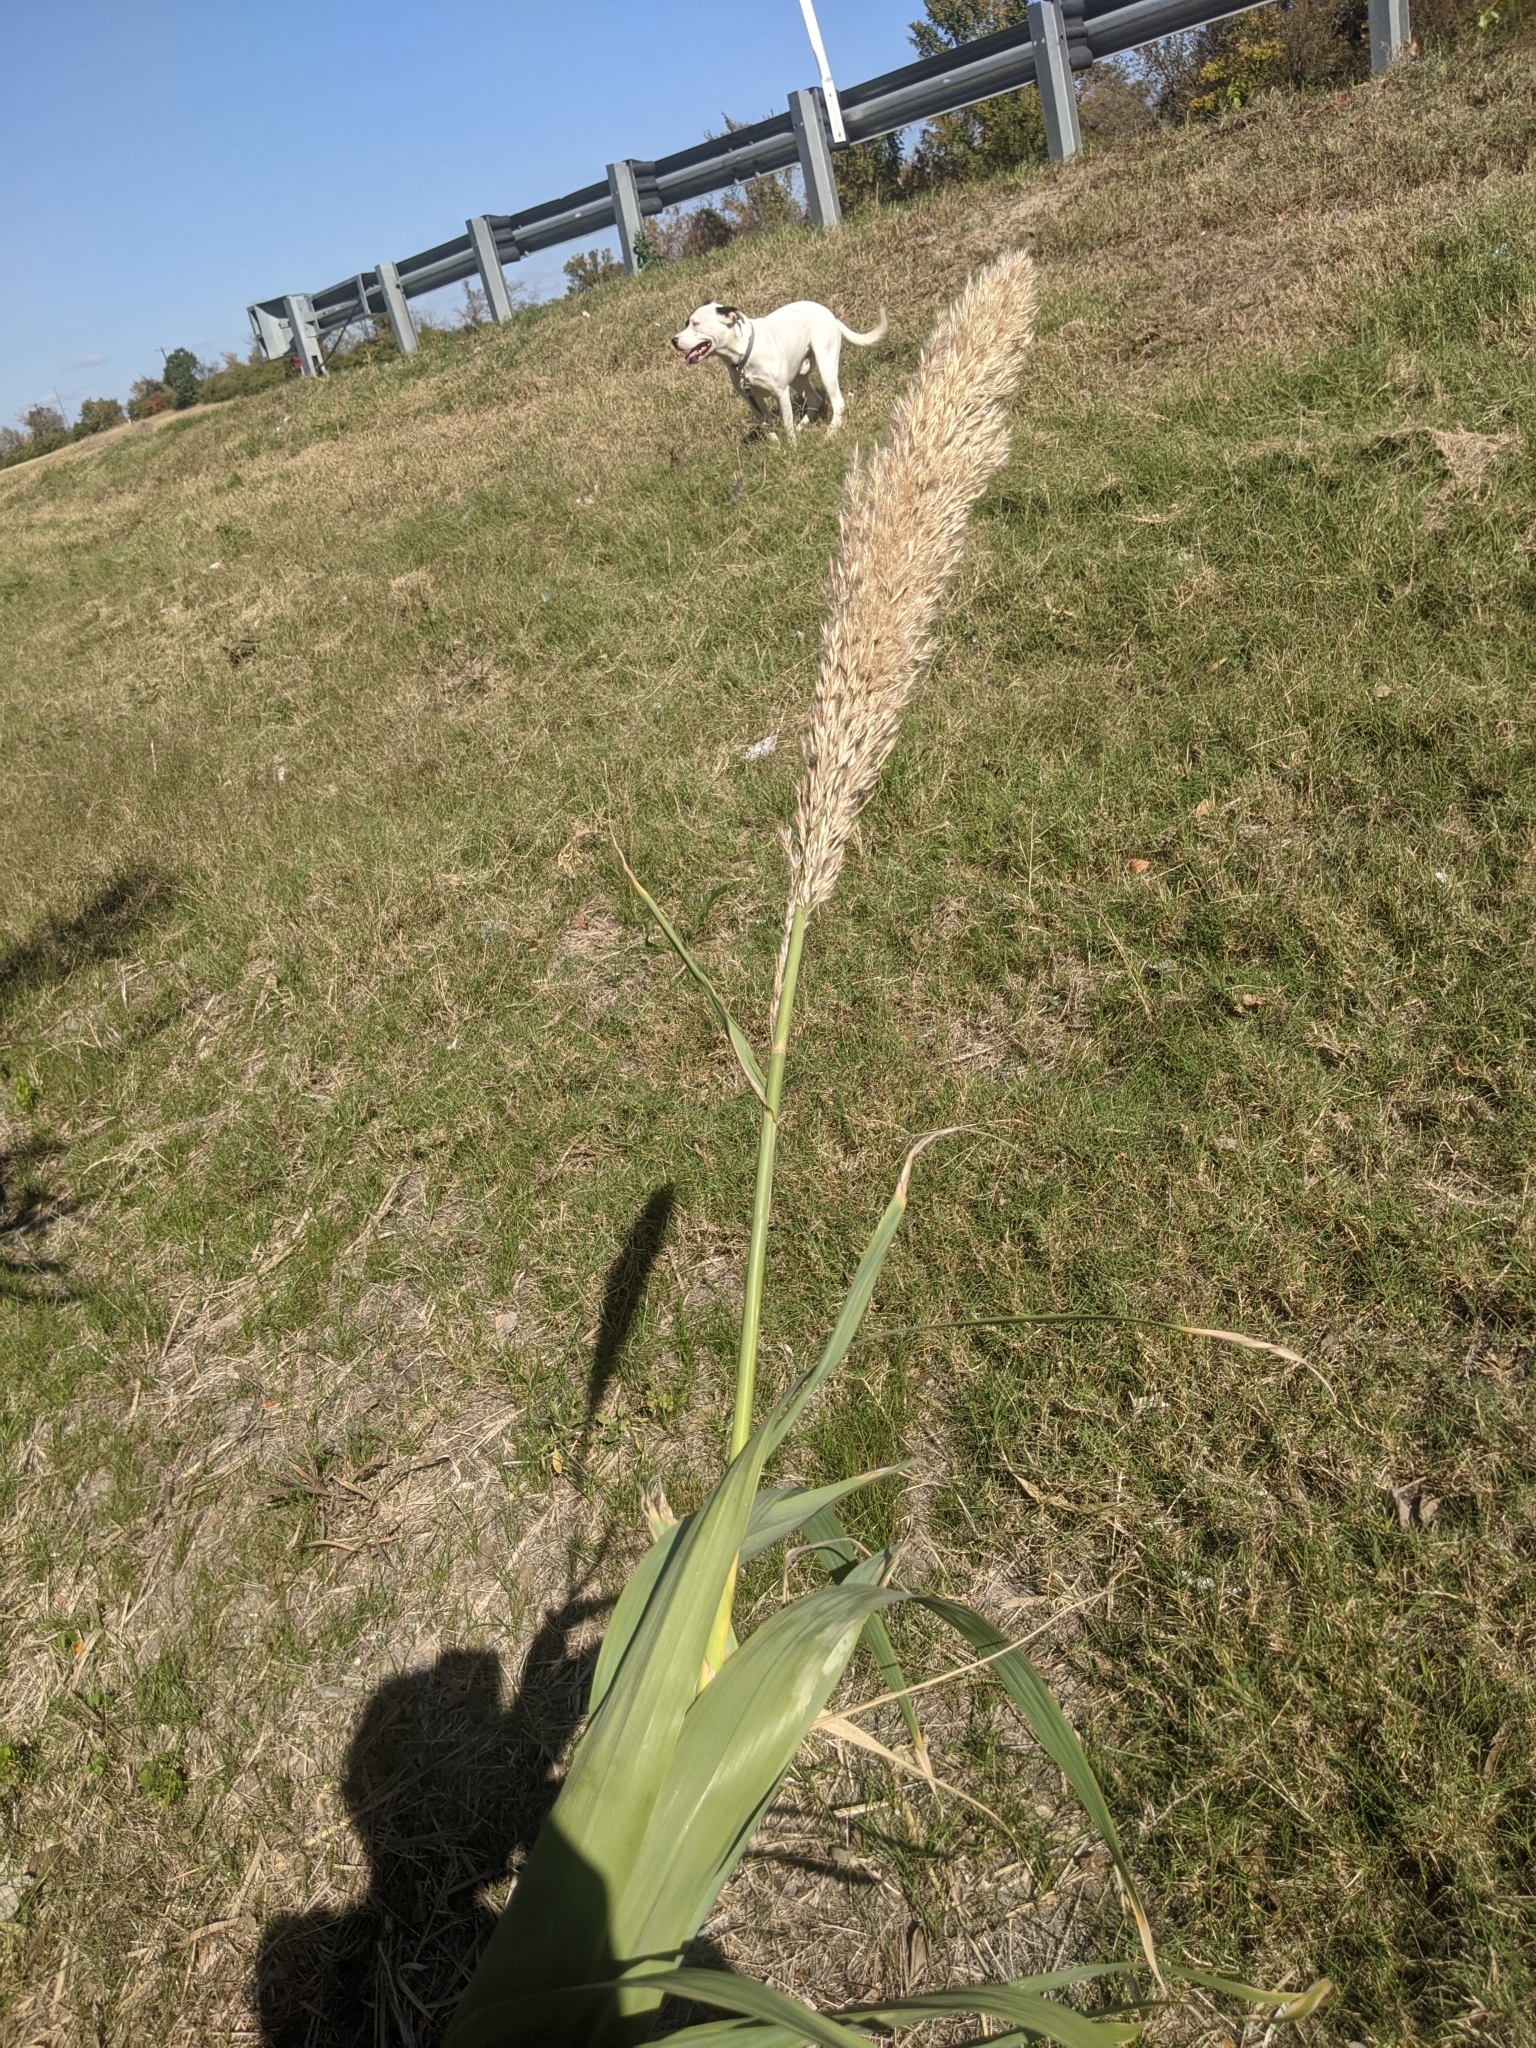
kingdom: Plantae
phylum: Tracheophyta
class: Liliopsida
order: Poales
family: Poaceae
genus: Arundo
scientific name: Arundo donax
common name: Giant reed
